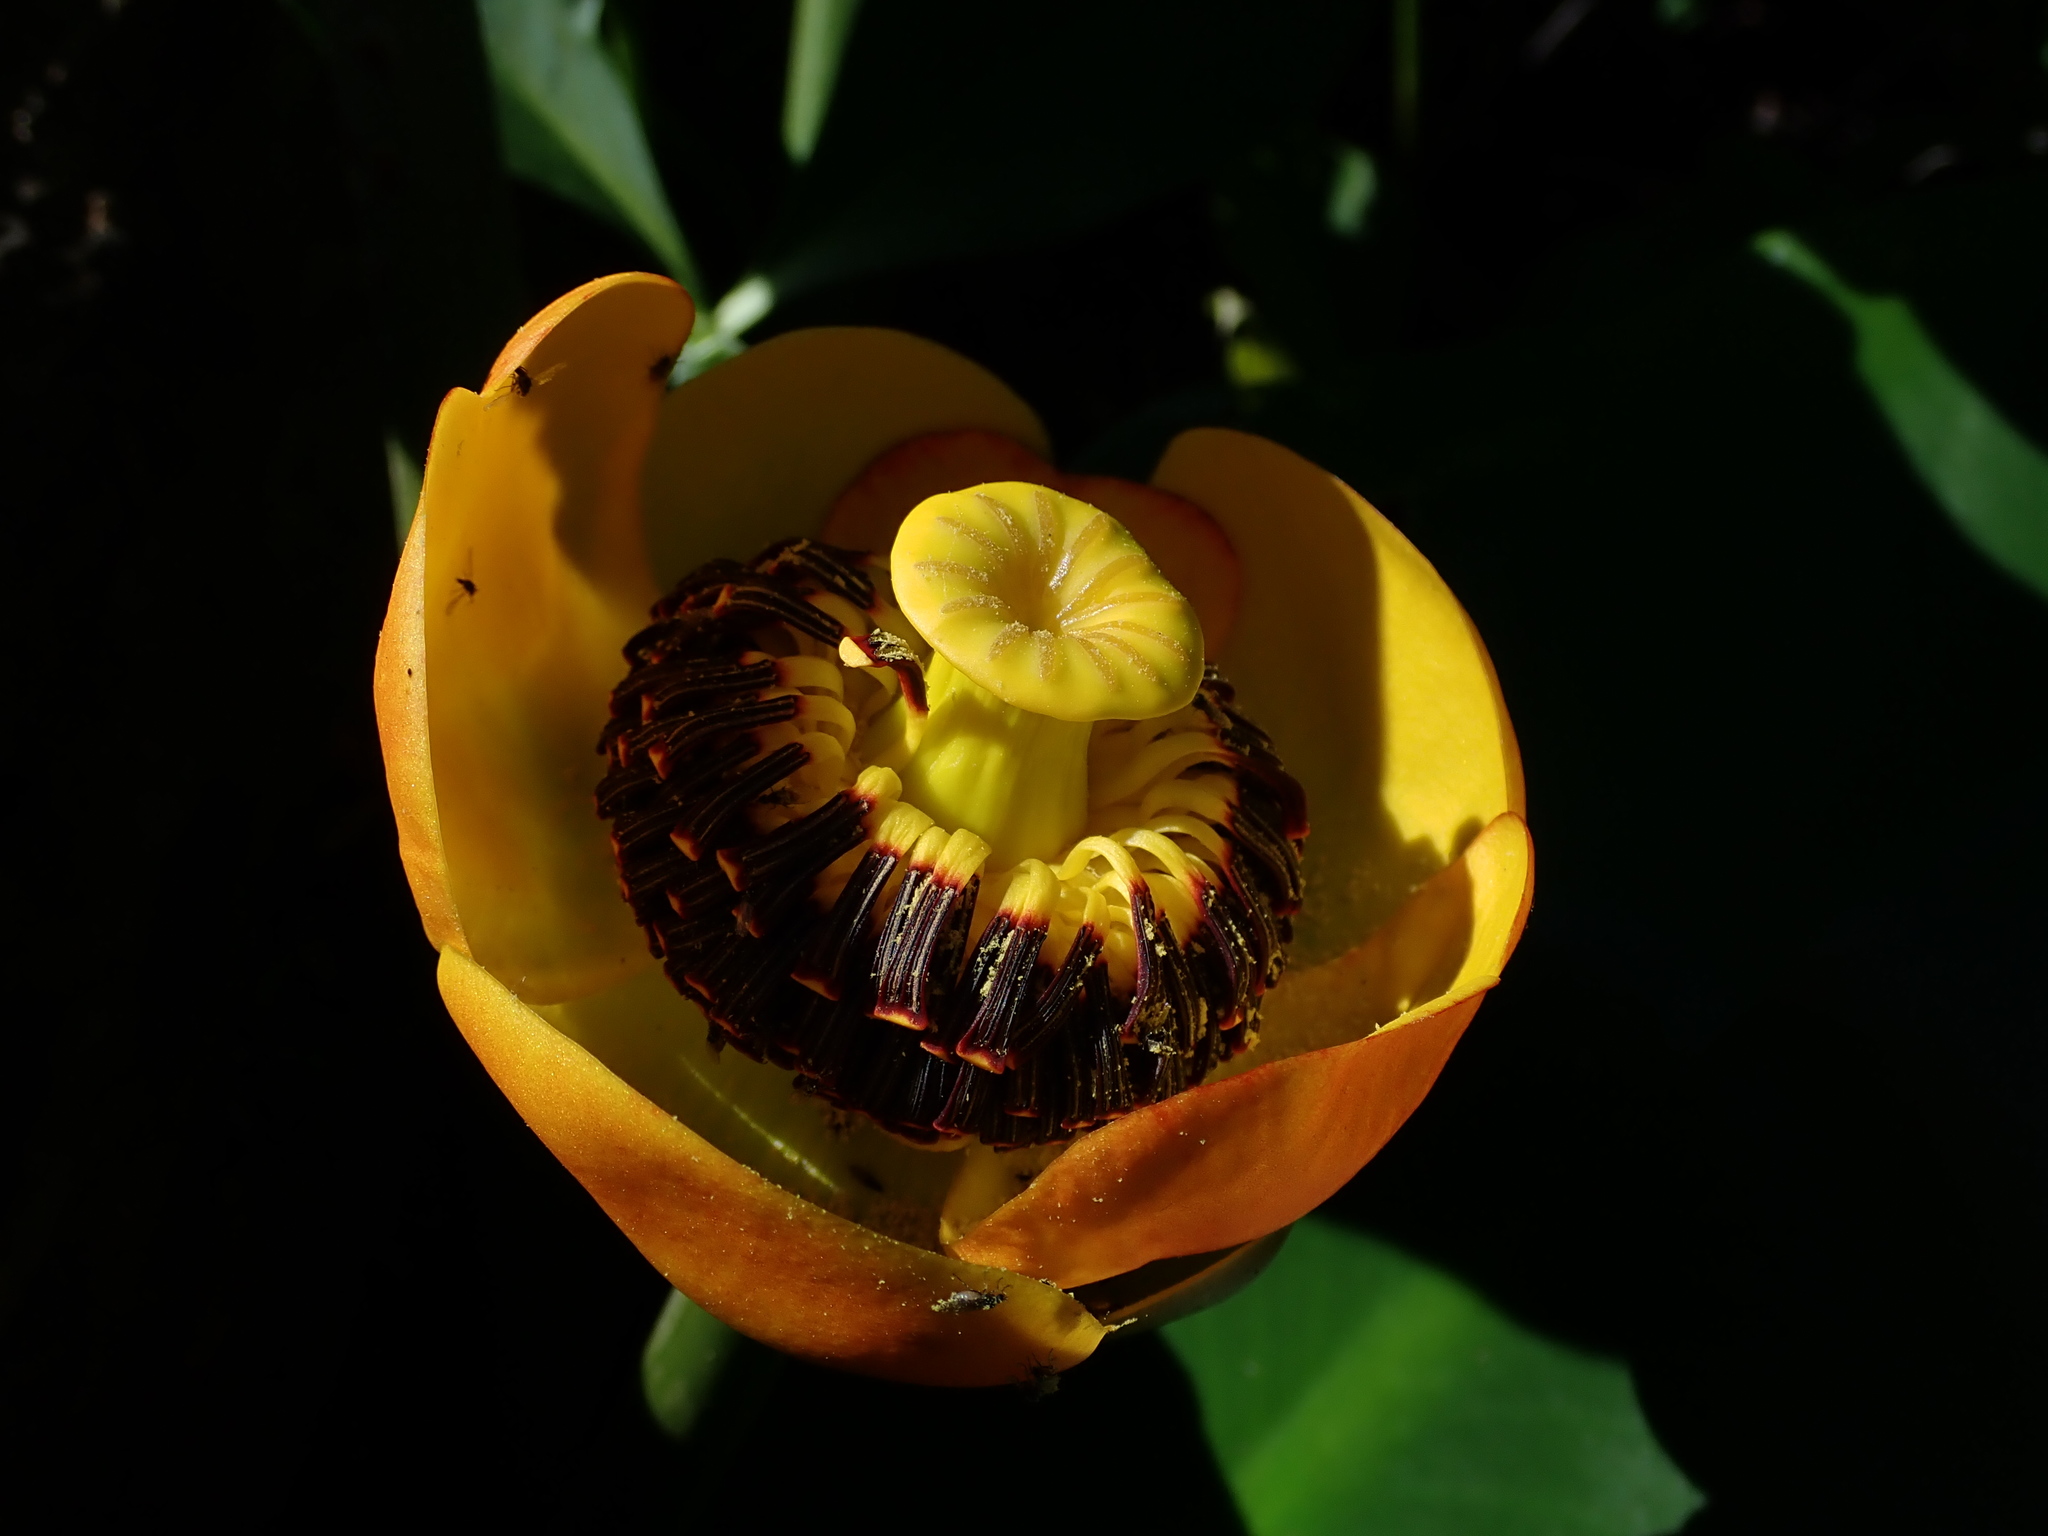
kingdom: Plantae
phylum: Tracheophyta
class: Magnoliopsida
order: Nymphaeales
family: Nymphaeaceae
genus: Nuphar
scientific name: Nuphar polysepala
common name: Rocky mountain cow-lily
